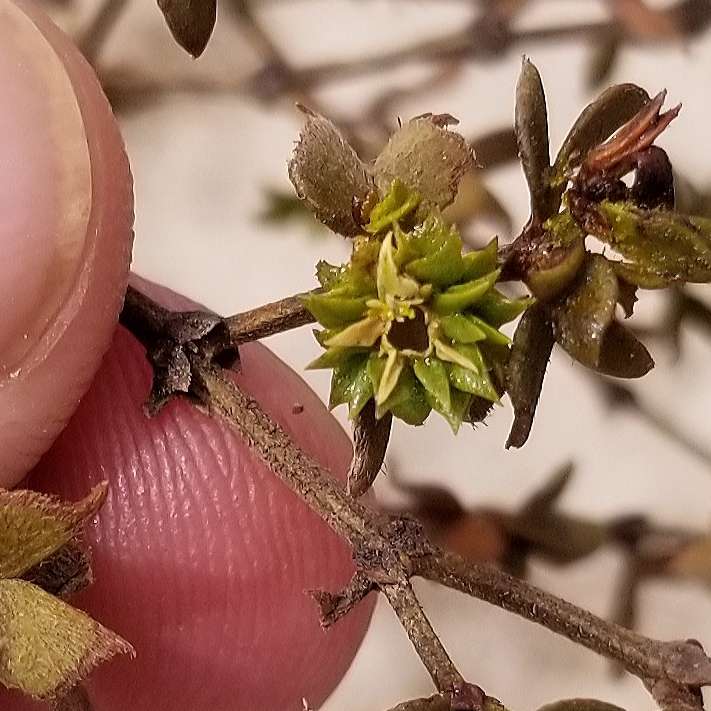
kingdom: Animalia
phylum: Arthropoda
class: Insecta
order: Diptera
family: Cecidomyiidae
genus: Asphondylia
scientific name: Asphondylia foliosa
